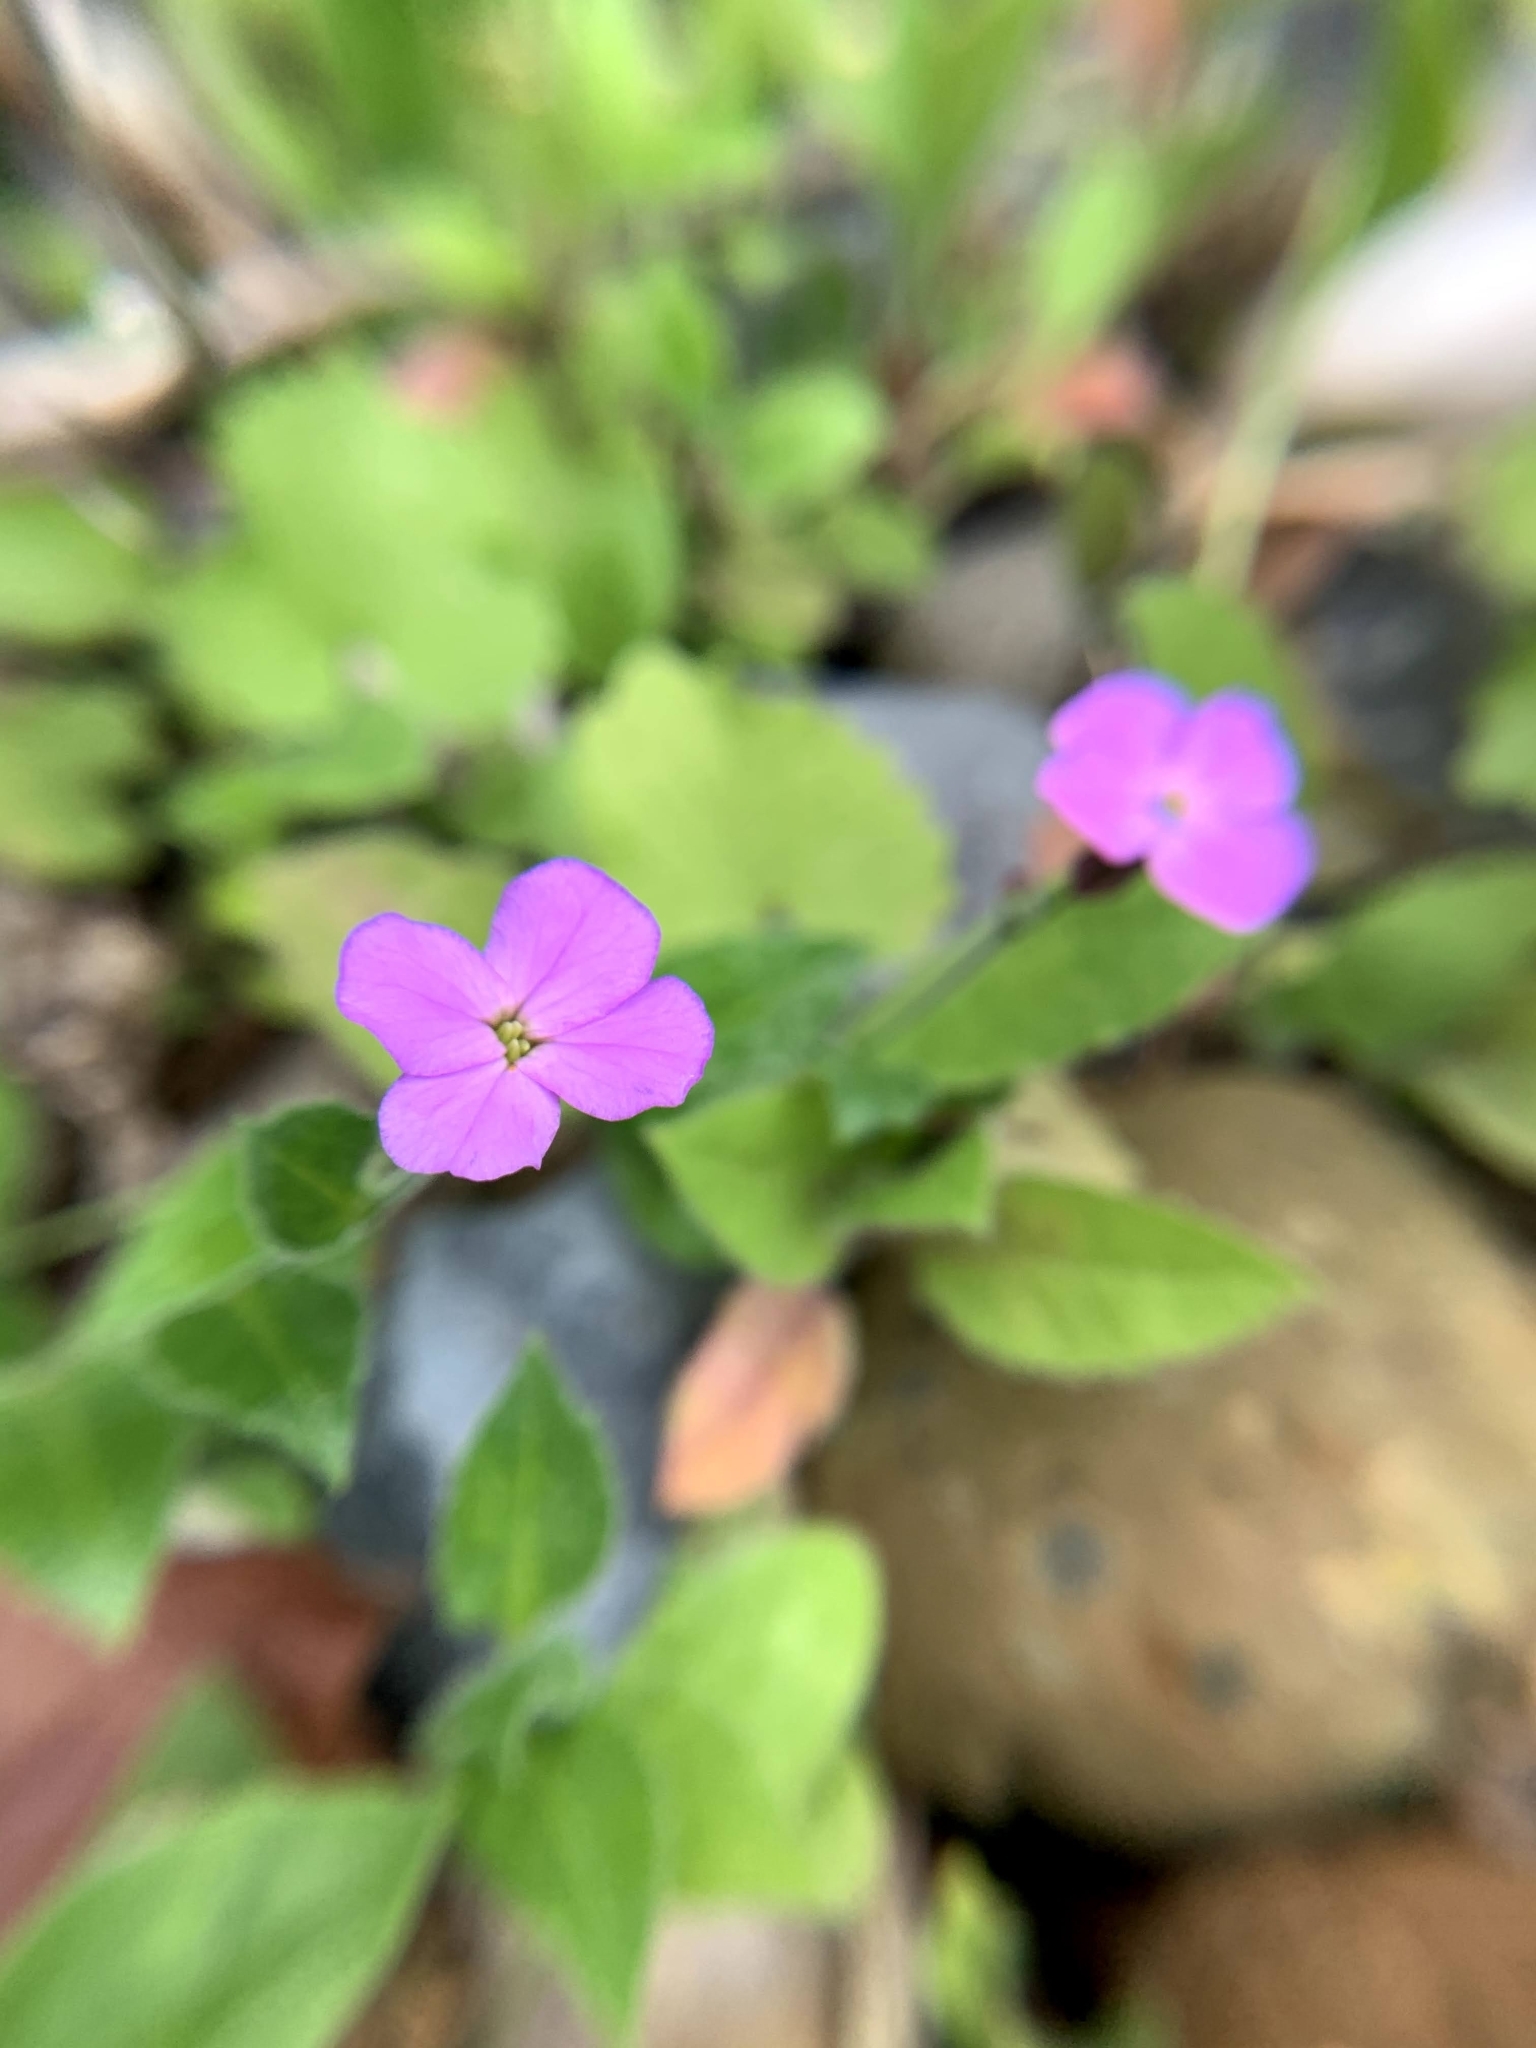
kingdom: Plantae
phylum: Tracheophyta
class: Magnoliopsida
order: Brassicales
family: Brassicaceae
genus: Hesperis
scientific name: Hesperis matronalis
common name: Dame's-violet
